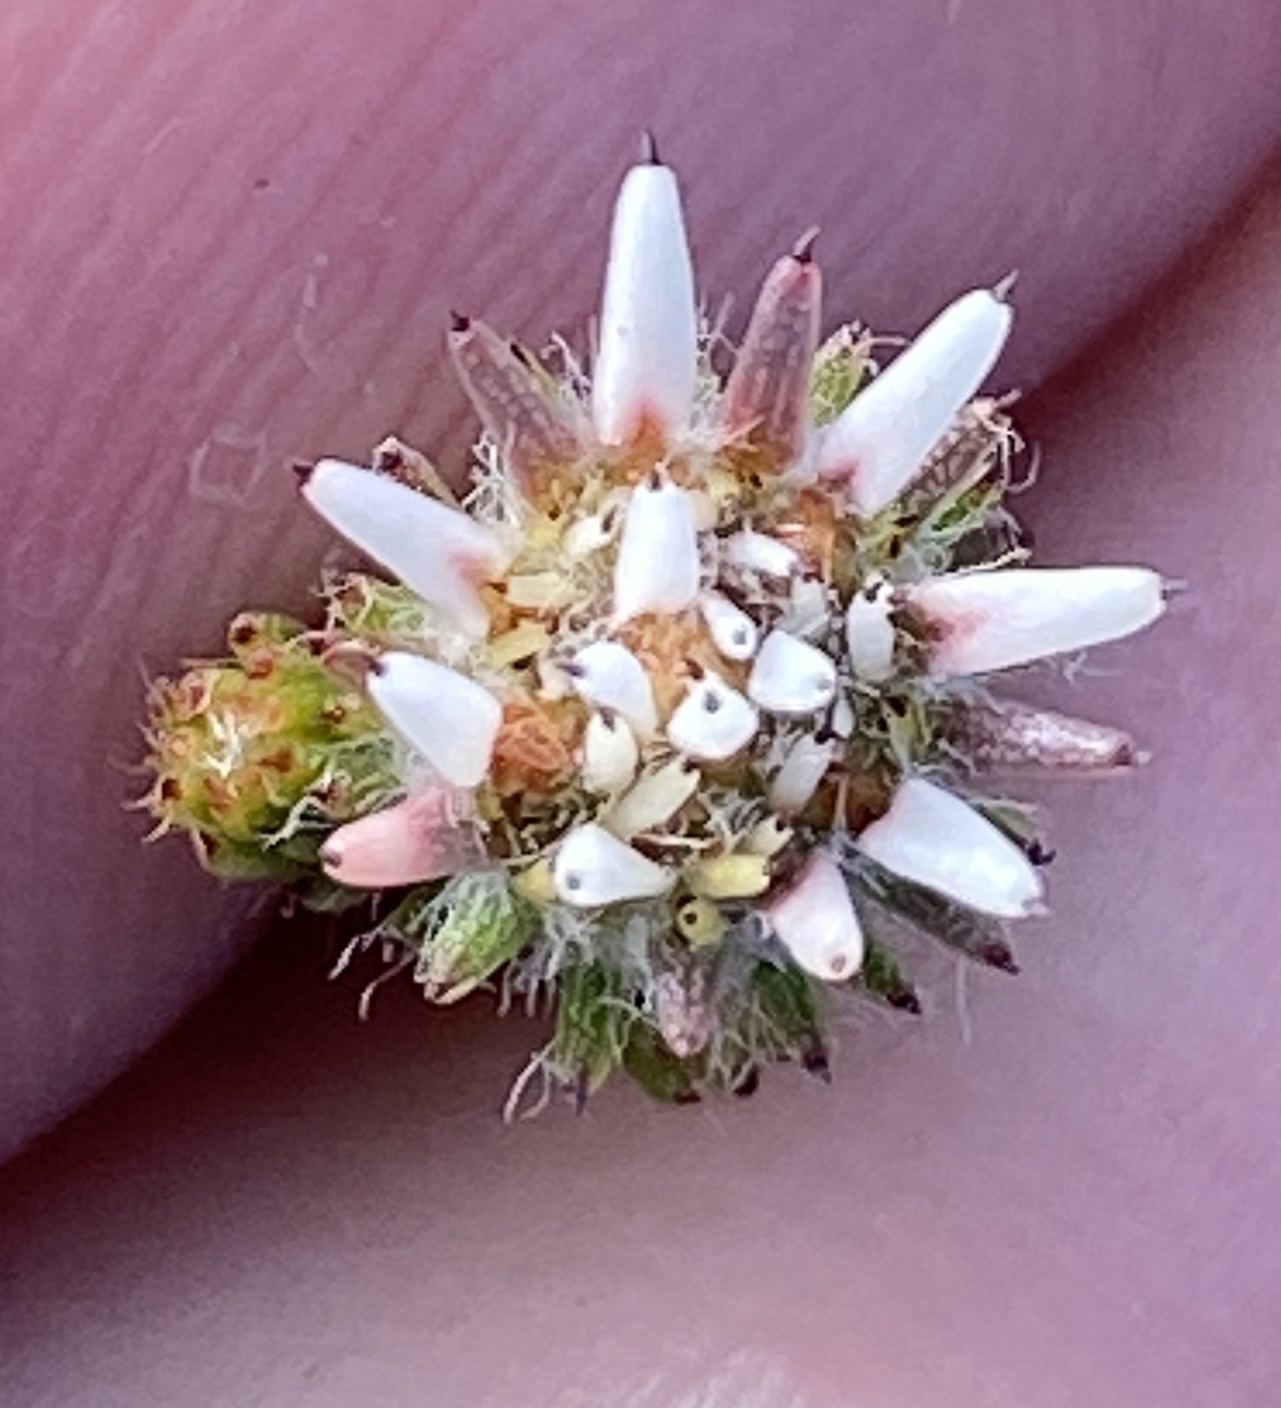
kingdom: Plantae
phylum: Tracheophyta
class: Magnoliopsida
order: Bruniales
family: Bruniaceae
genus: Staavia
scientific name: Staavia radiata
